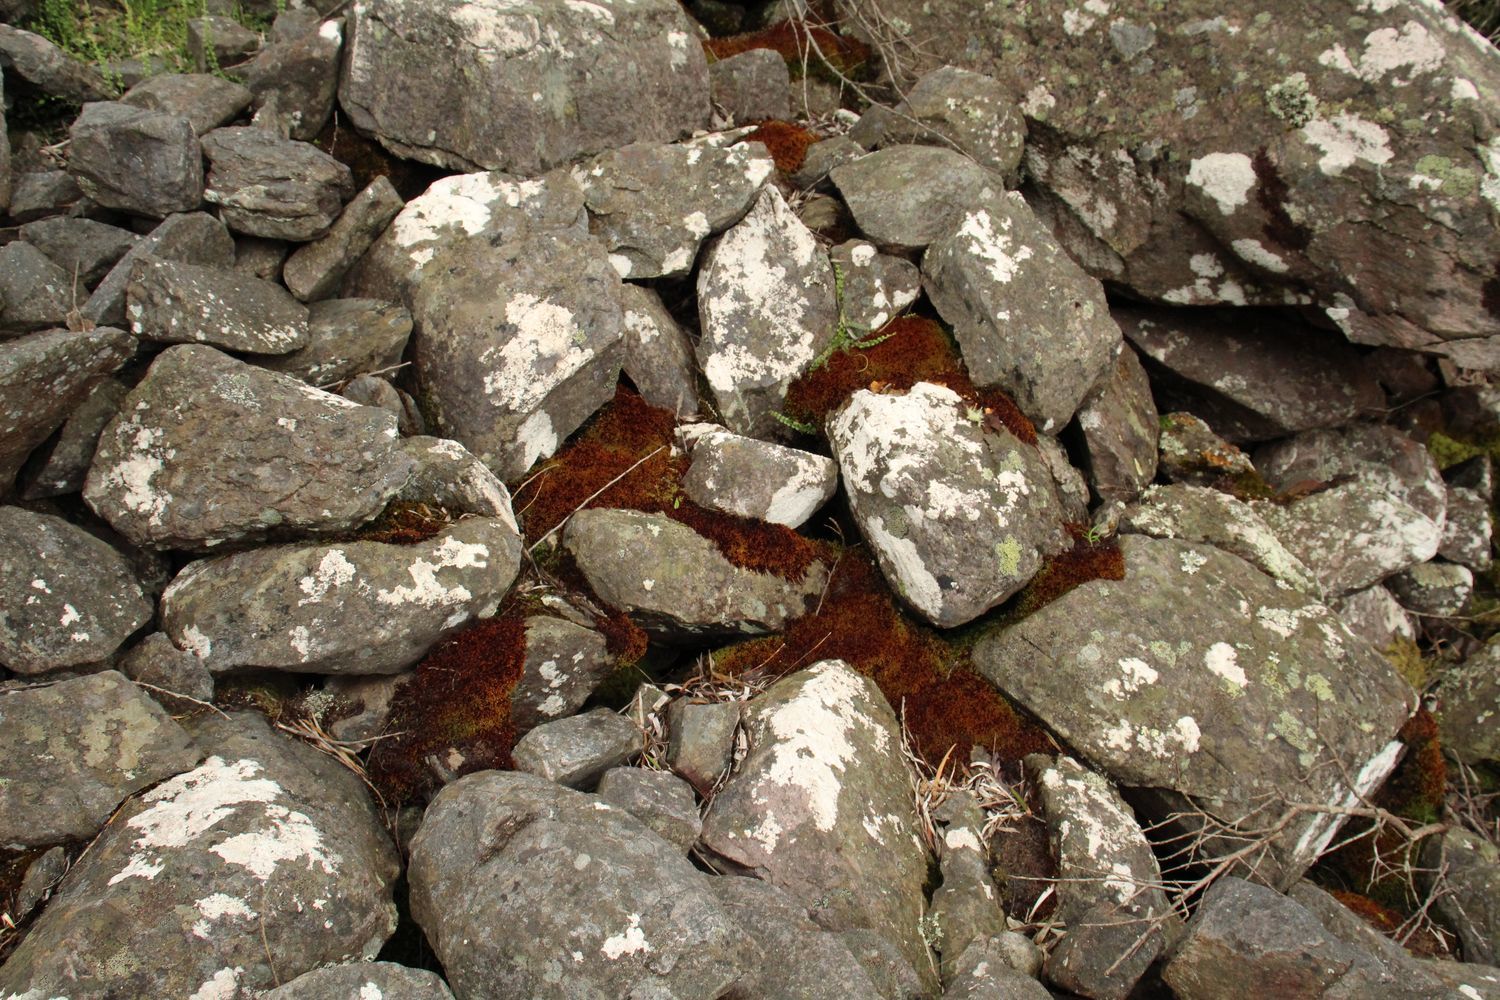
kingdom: Plantae
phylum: Marchantiophyta
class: Jungermanniopsida
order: Jungermanniales
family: Adelanthaceae
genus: Syzygiella
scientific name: Syzygiella colorata
